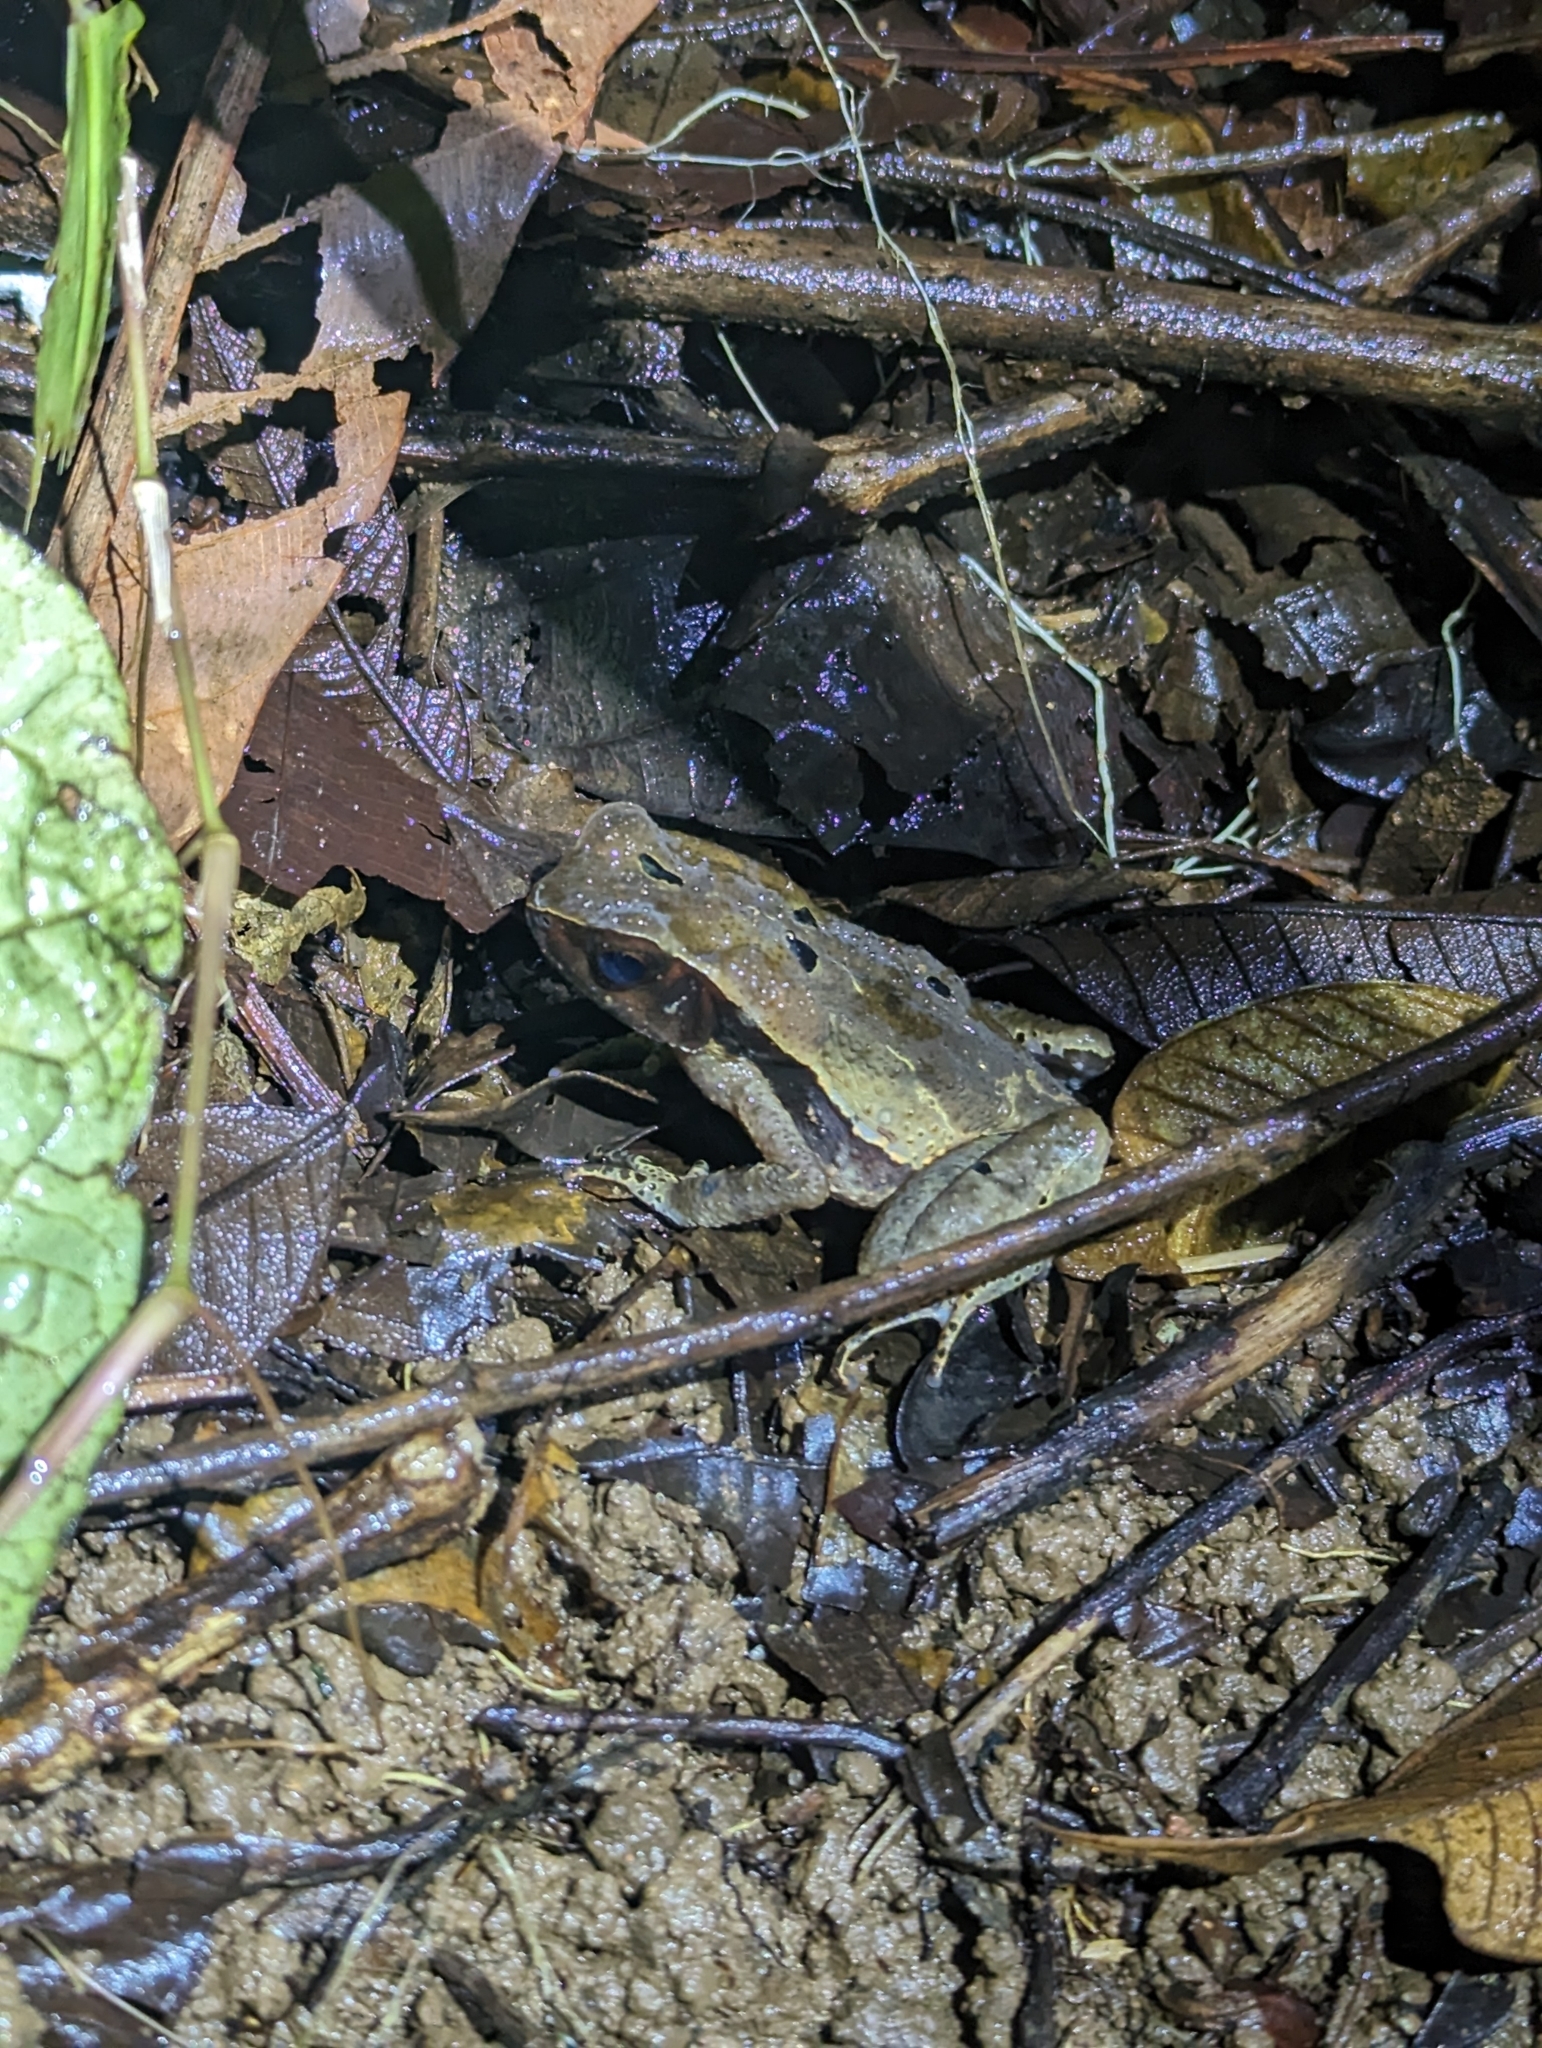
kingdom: Animalia
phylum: Chordata
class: Amphibia
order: Anura
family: Bufonidae
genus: Rhaebo
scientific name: Rhaebo haematiticus
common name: Truando toad
